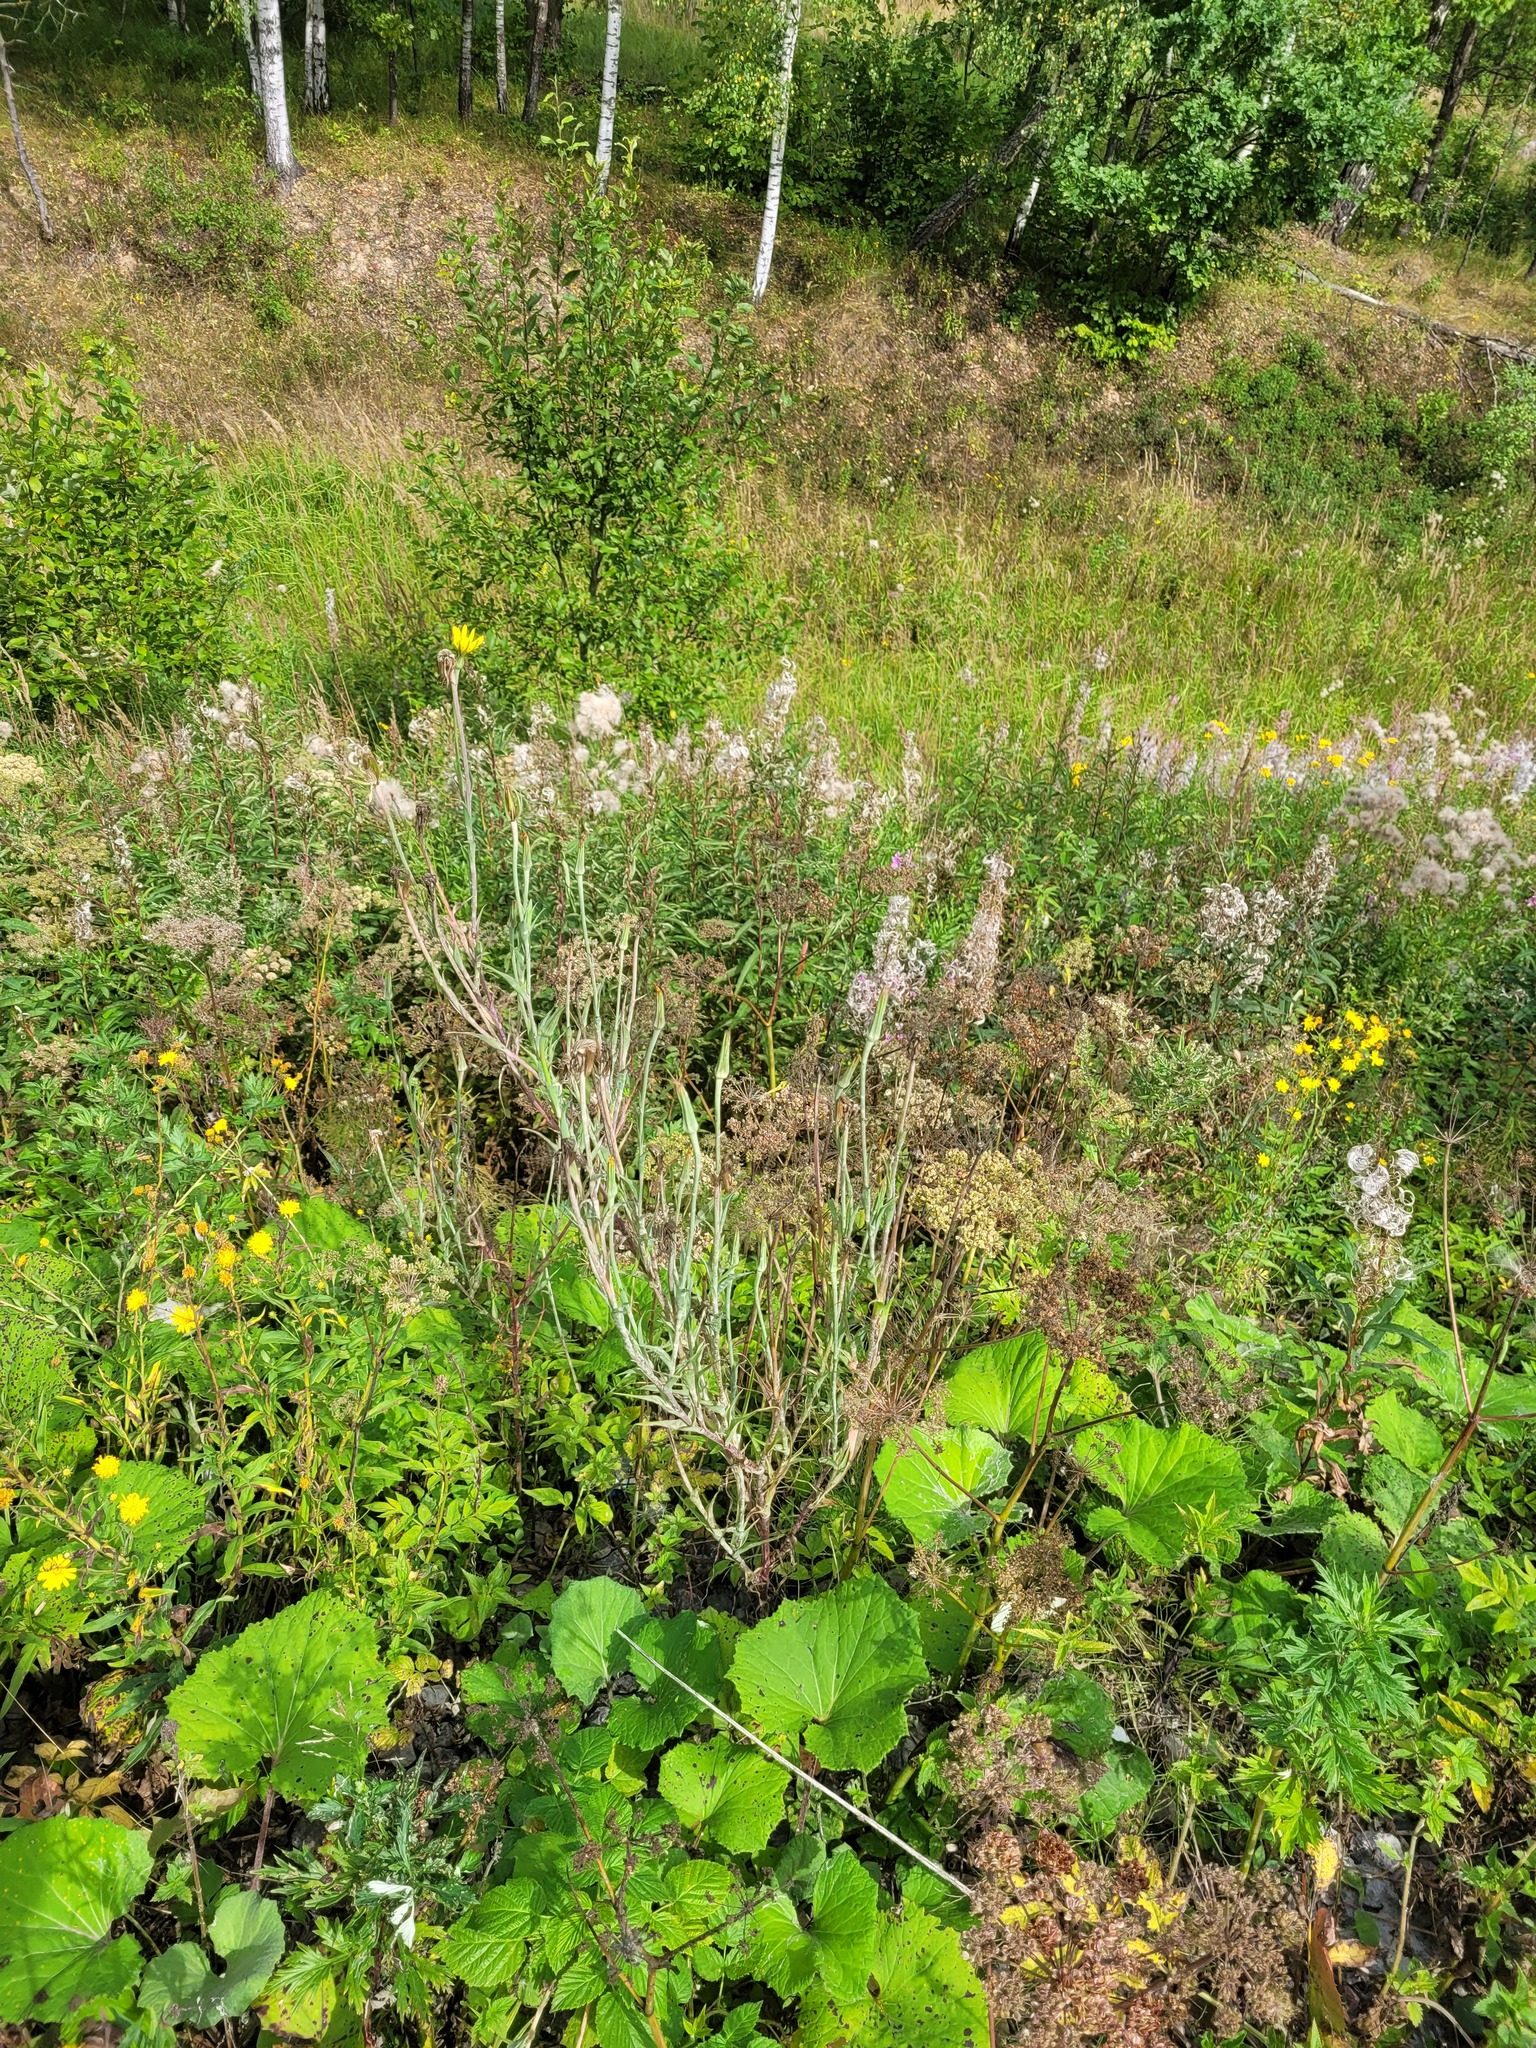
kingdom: Plantae
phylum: Tracheophyta
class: Magnoliopsida
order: Asterales
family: Asteraceae
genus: Tragopogon
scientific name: Tragopogon dubius
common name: Yellow salsify
